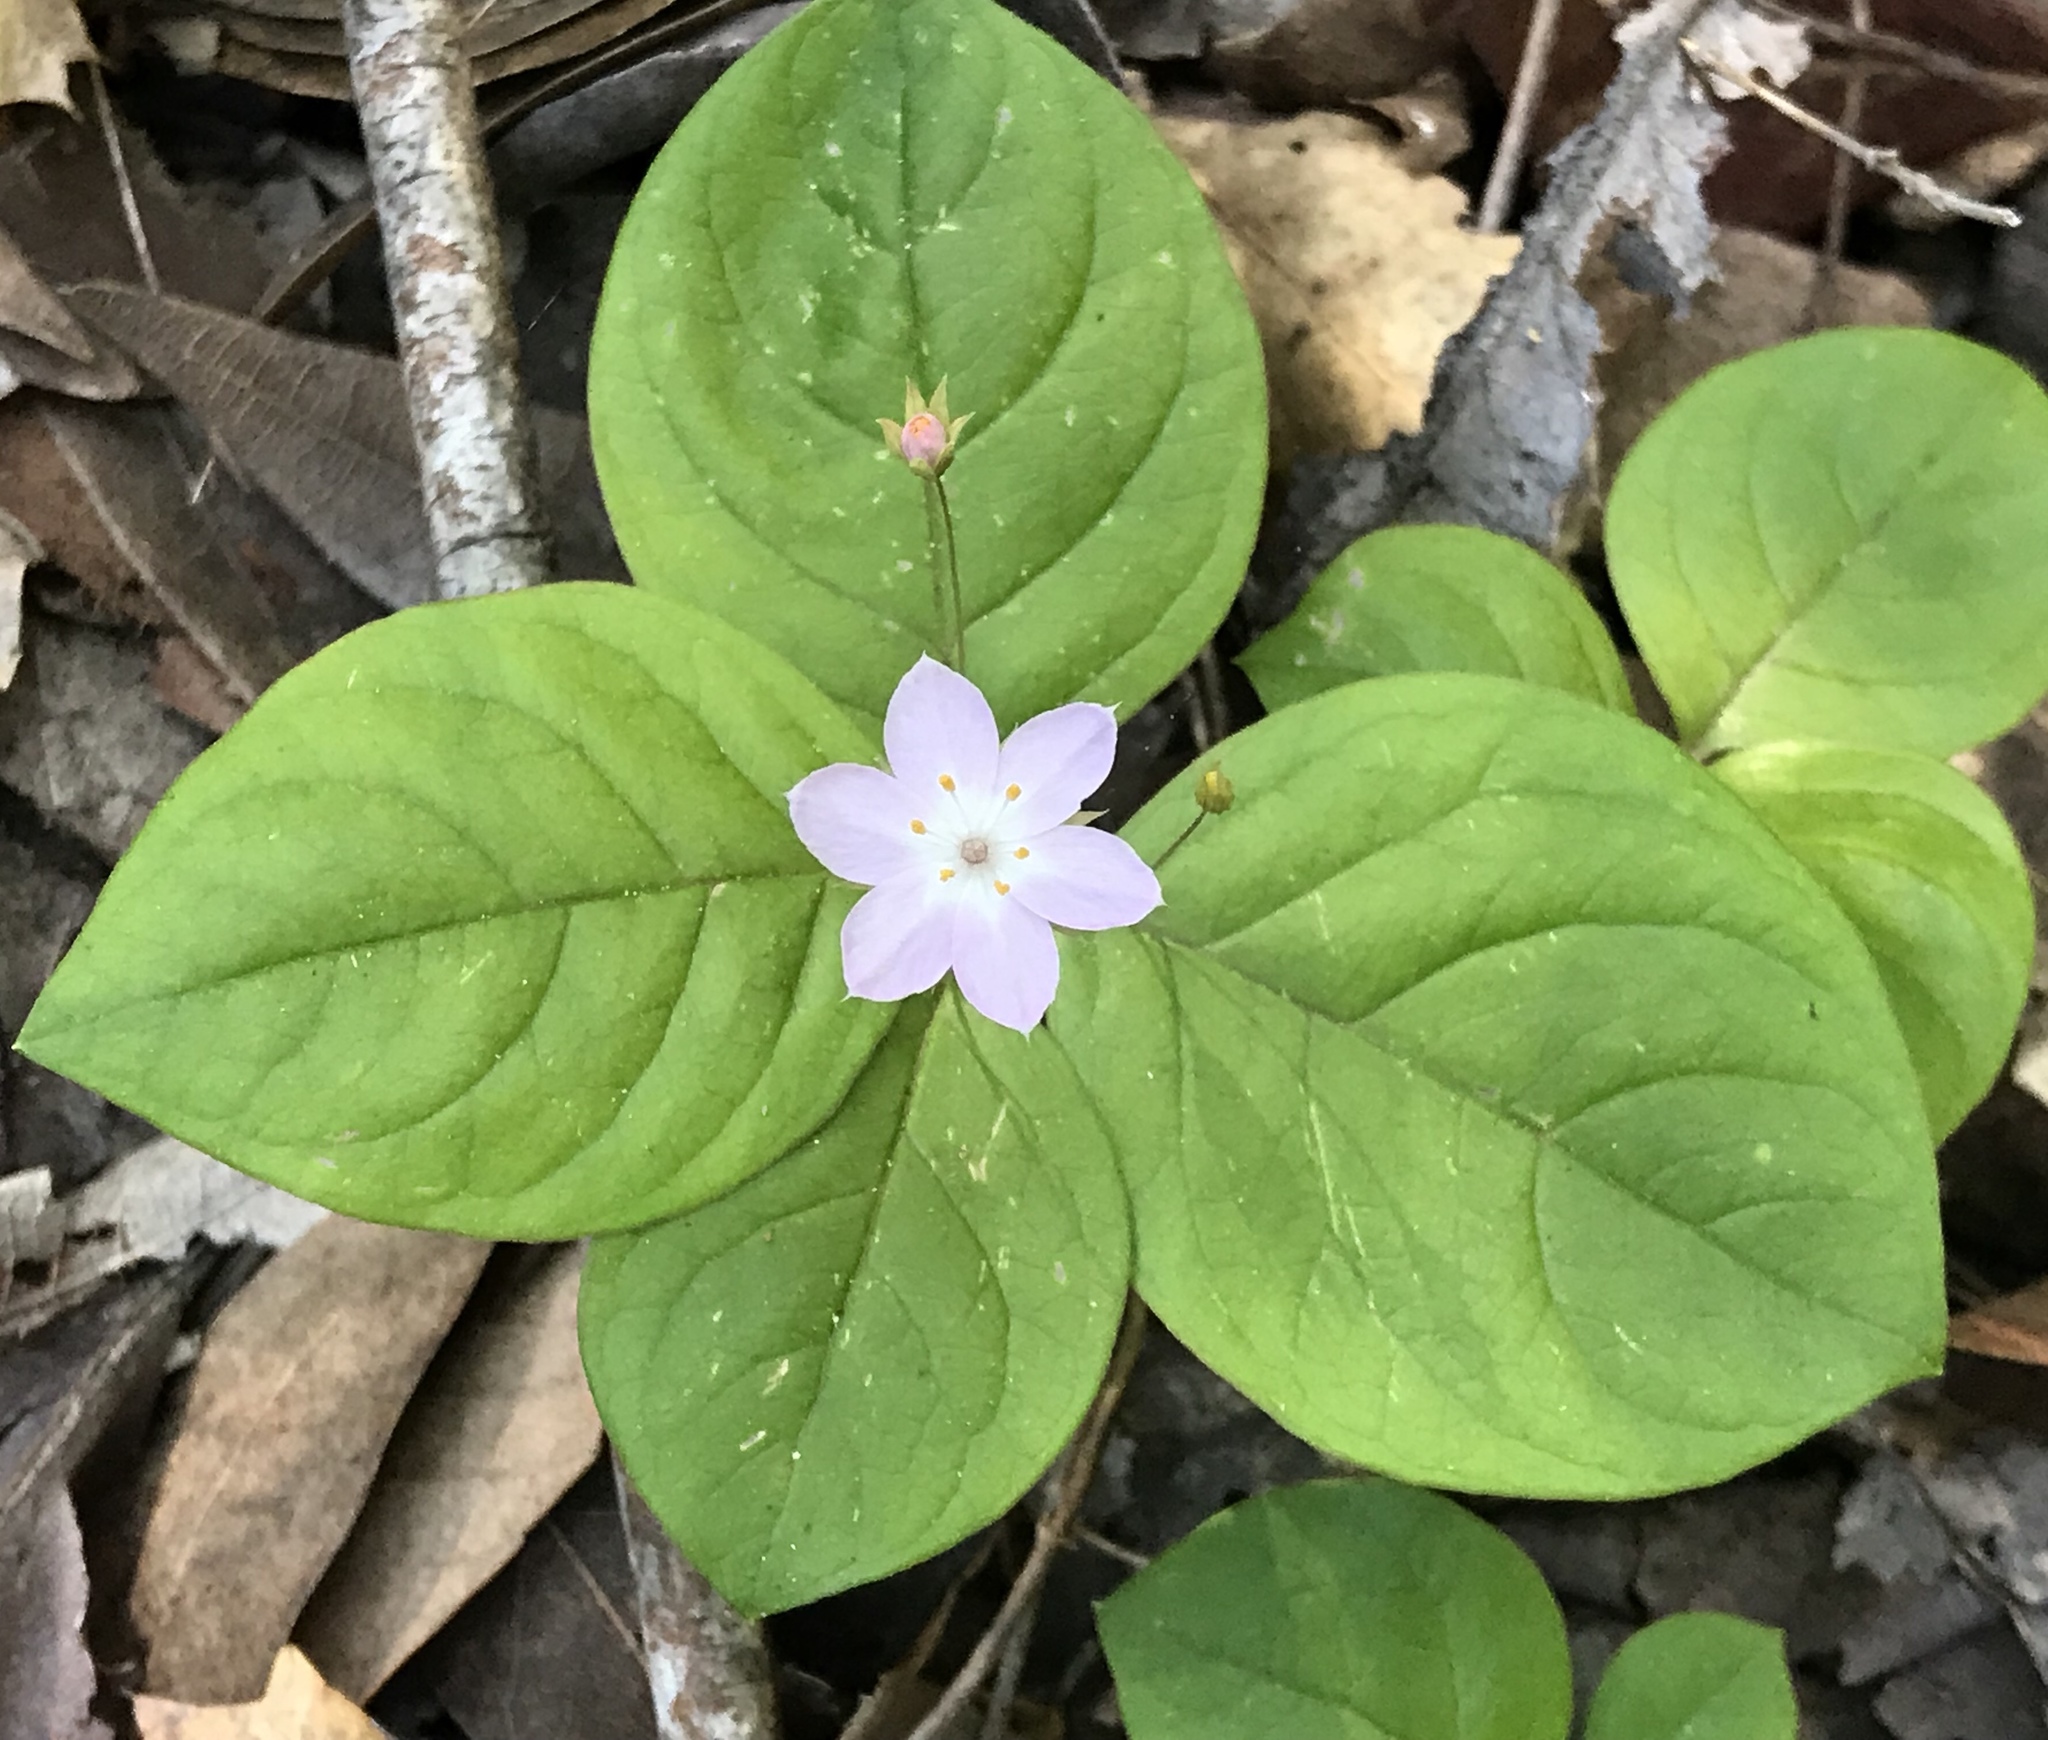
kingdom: Plantae
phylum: Tracheophyta
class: Magnoliopsida
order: Ericales
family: Primulaceae
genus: Lysimachia
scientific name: Lysimachia latifolia
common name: Pacific starflower
